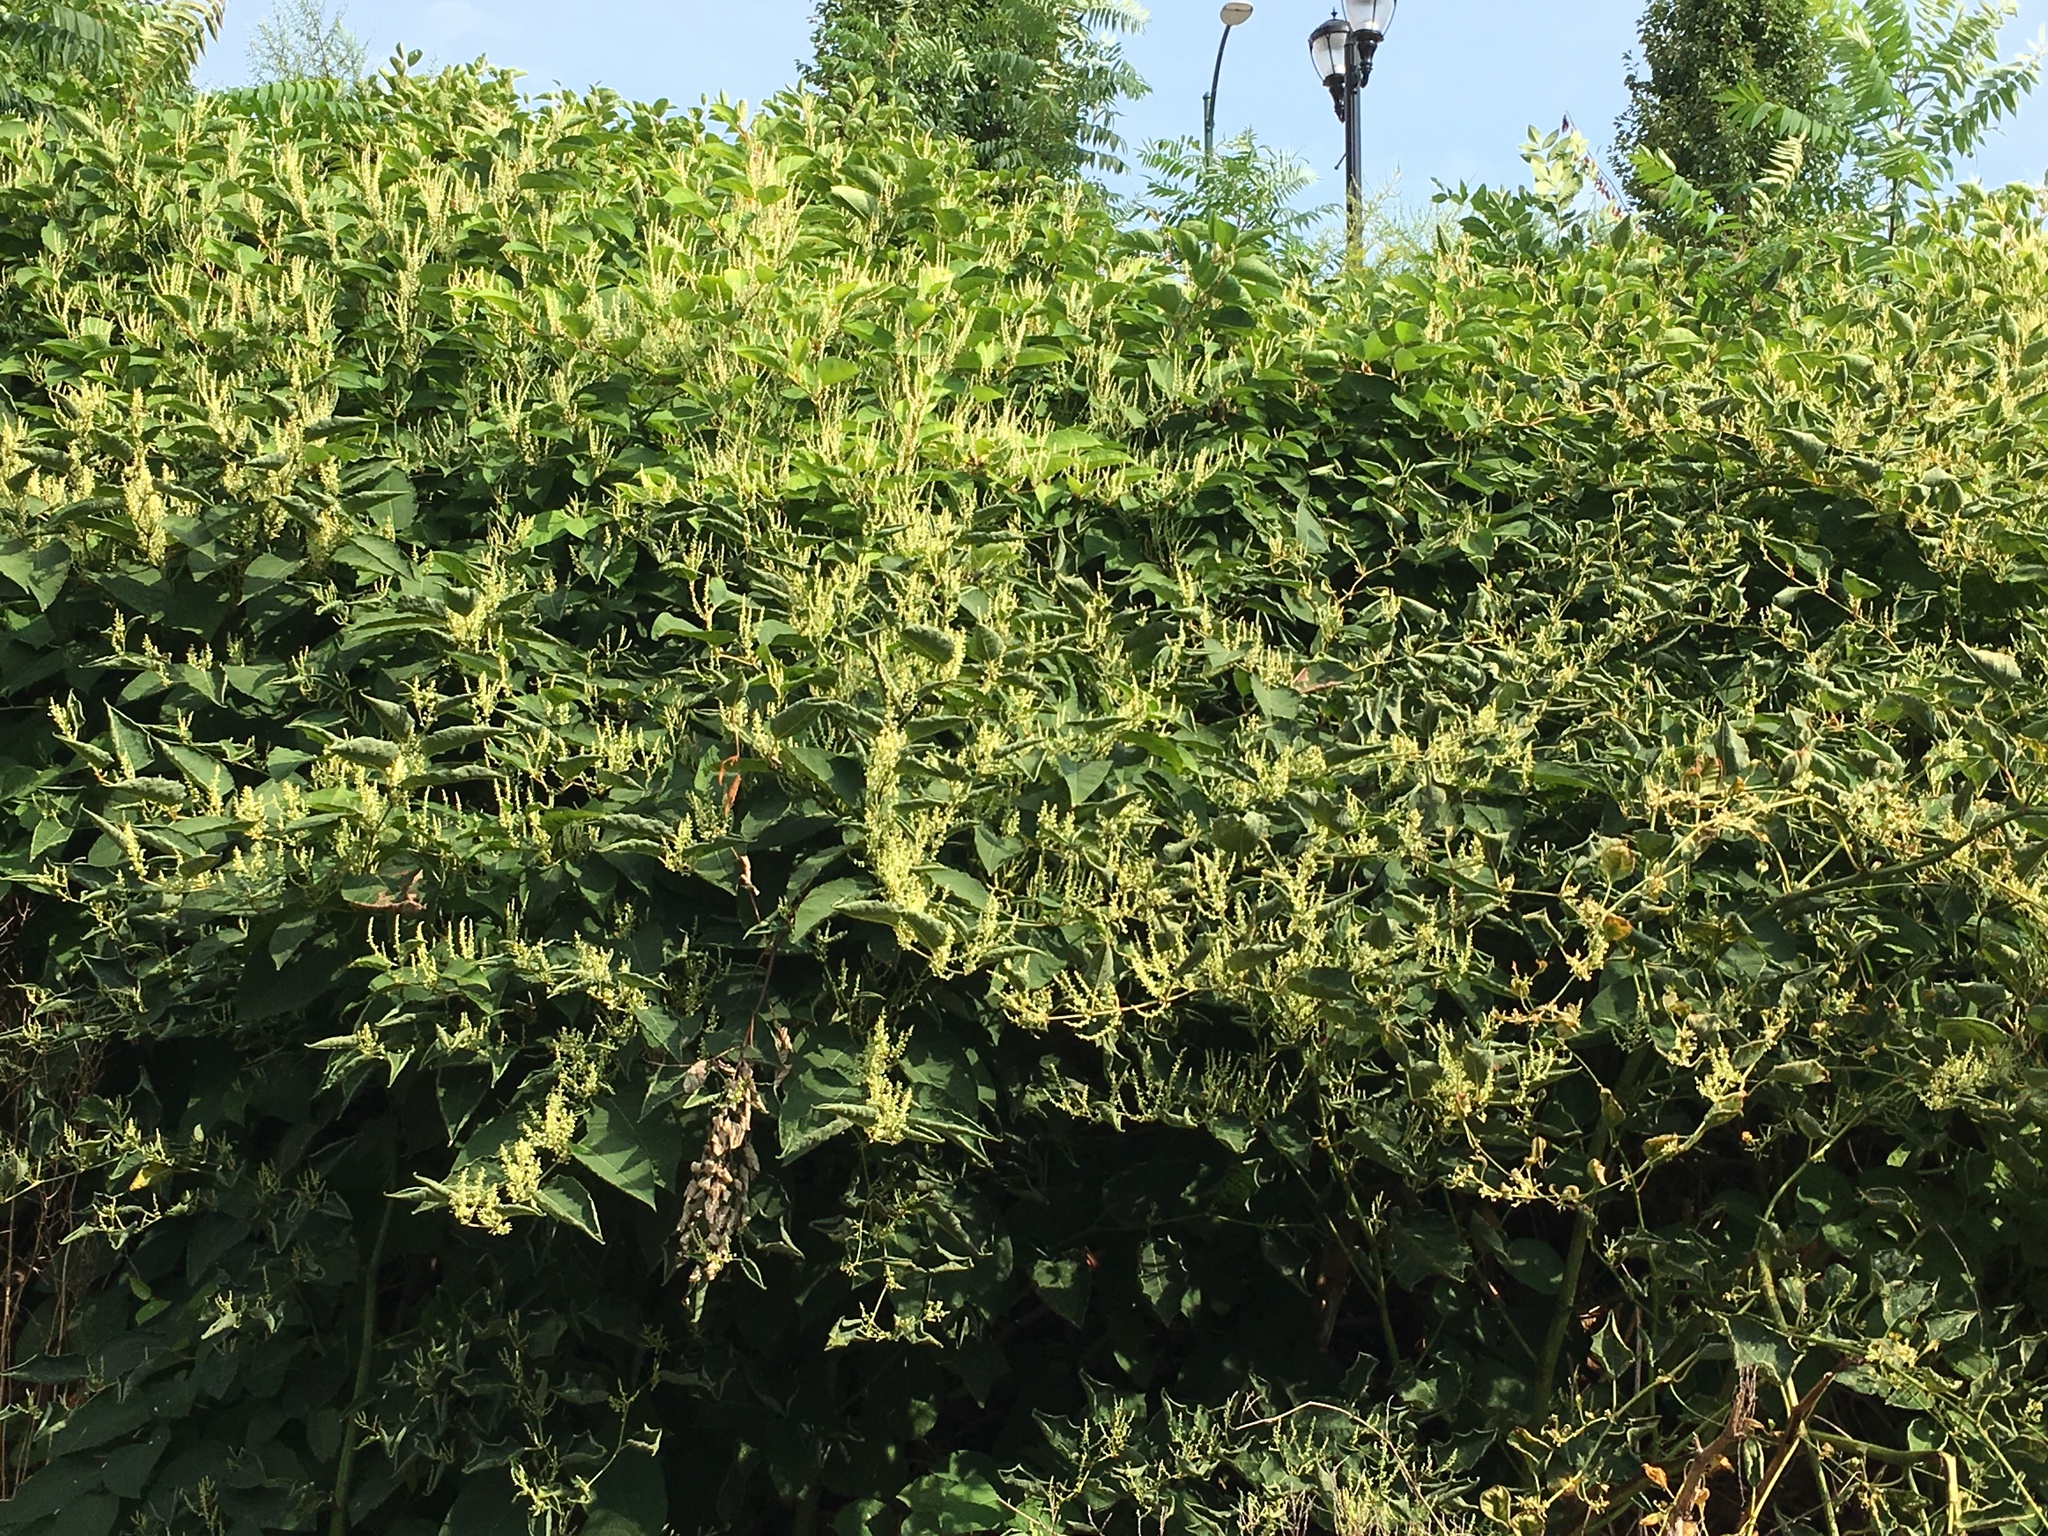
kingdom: Plantae
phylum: Tracheophyta
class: Magnoliopsida
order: Caryophyllales
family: Polygonaceae
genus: Reynoutria
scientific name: Reynoutria japonica
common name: Japanese knotweed
